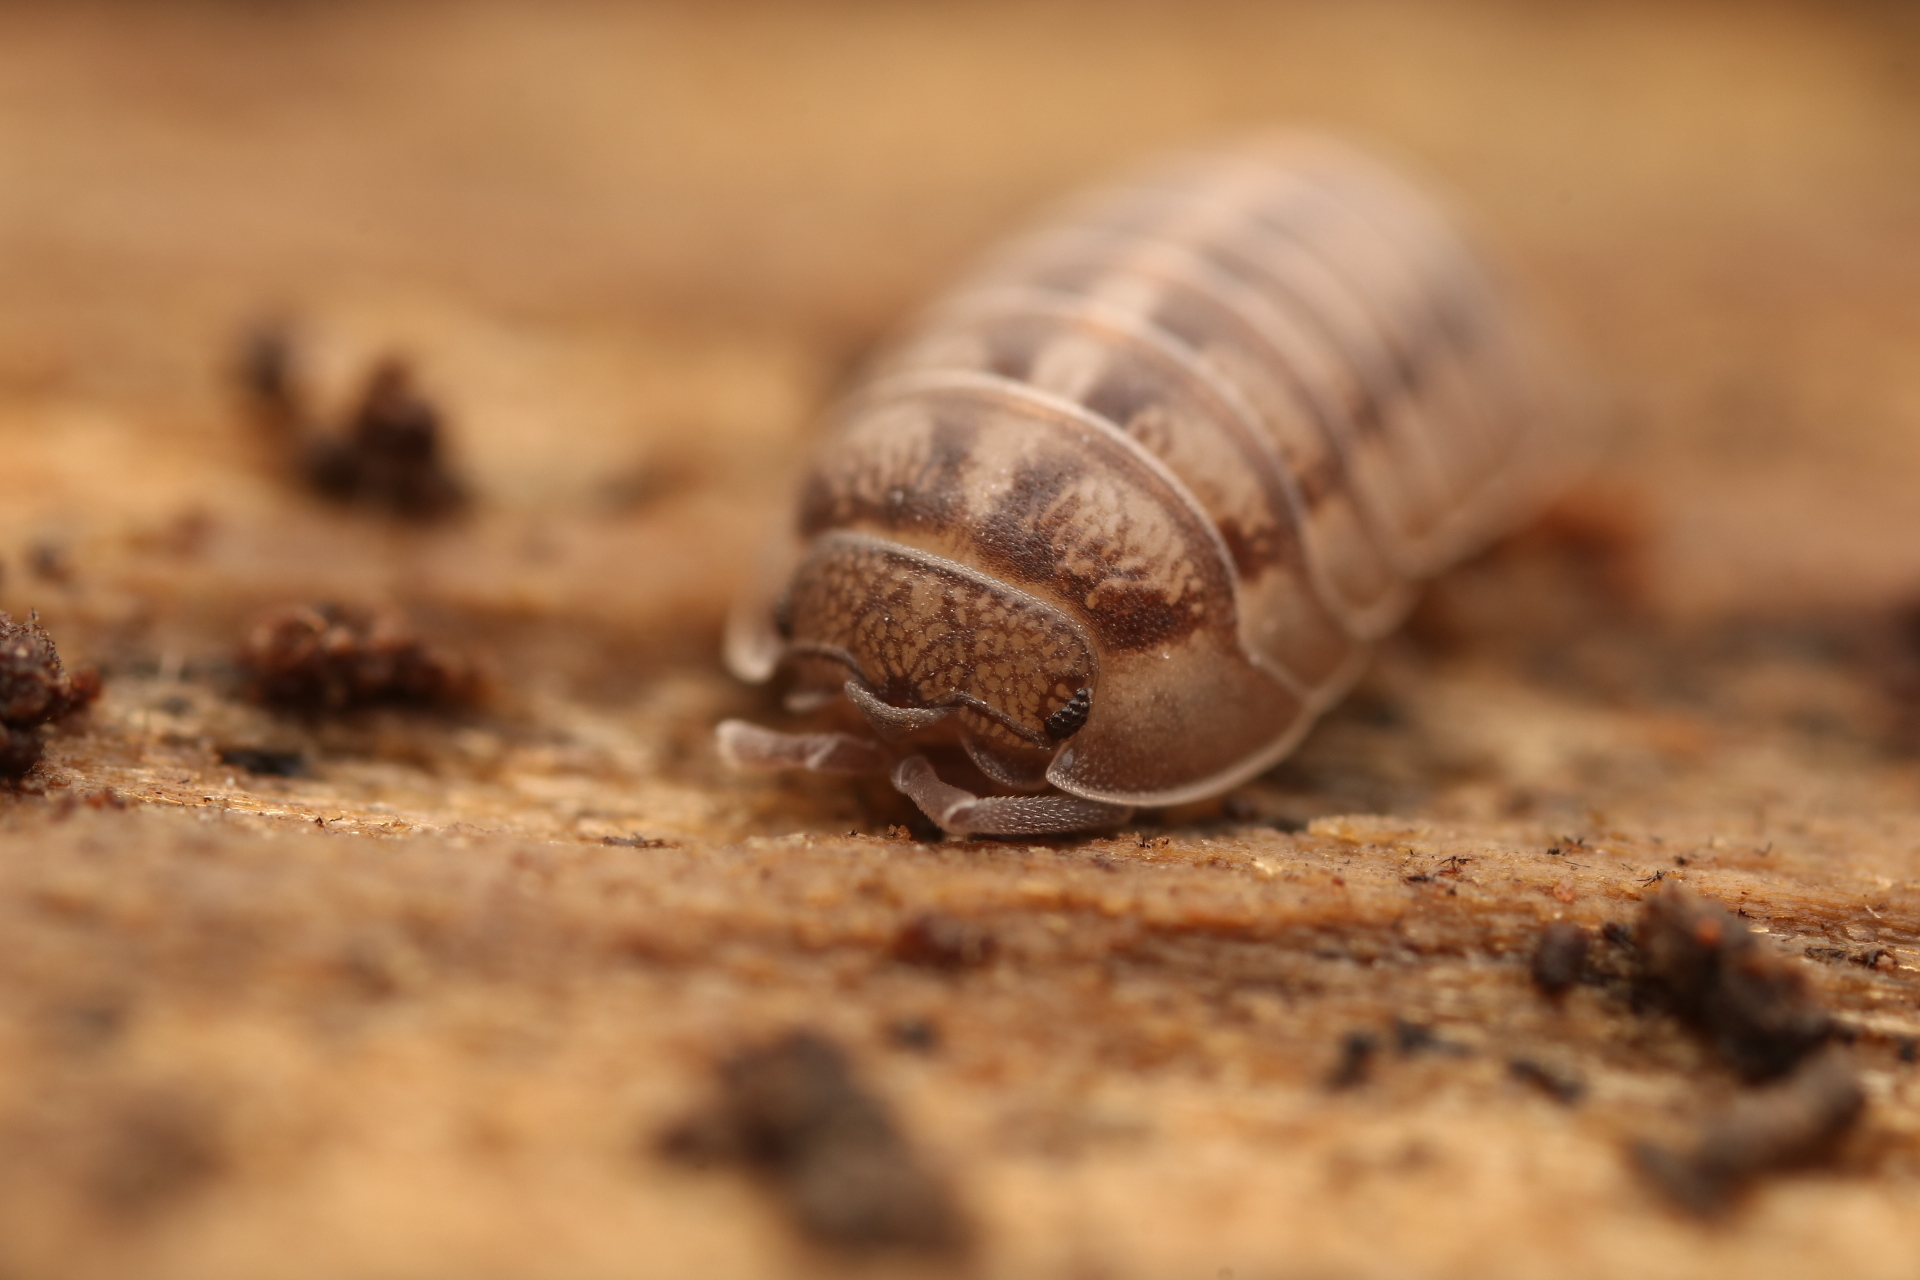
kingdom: Animalia
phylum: Arthropoda
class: Malacostraca
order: Isopoda
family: Armadillidiidae
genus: Armadillidium
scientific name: Armadillidium nasatum
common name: Isopod
